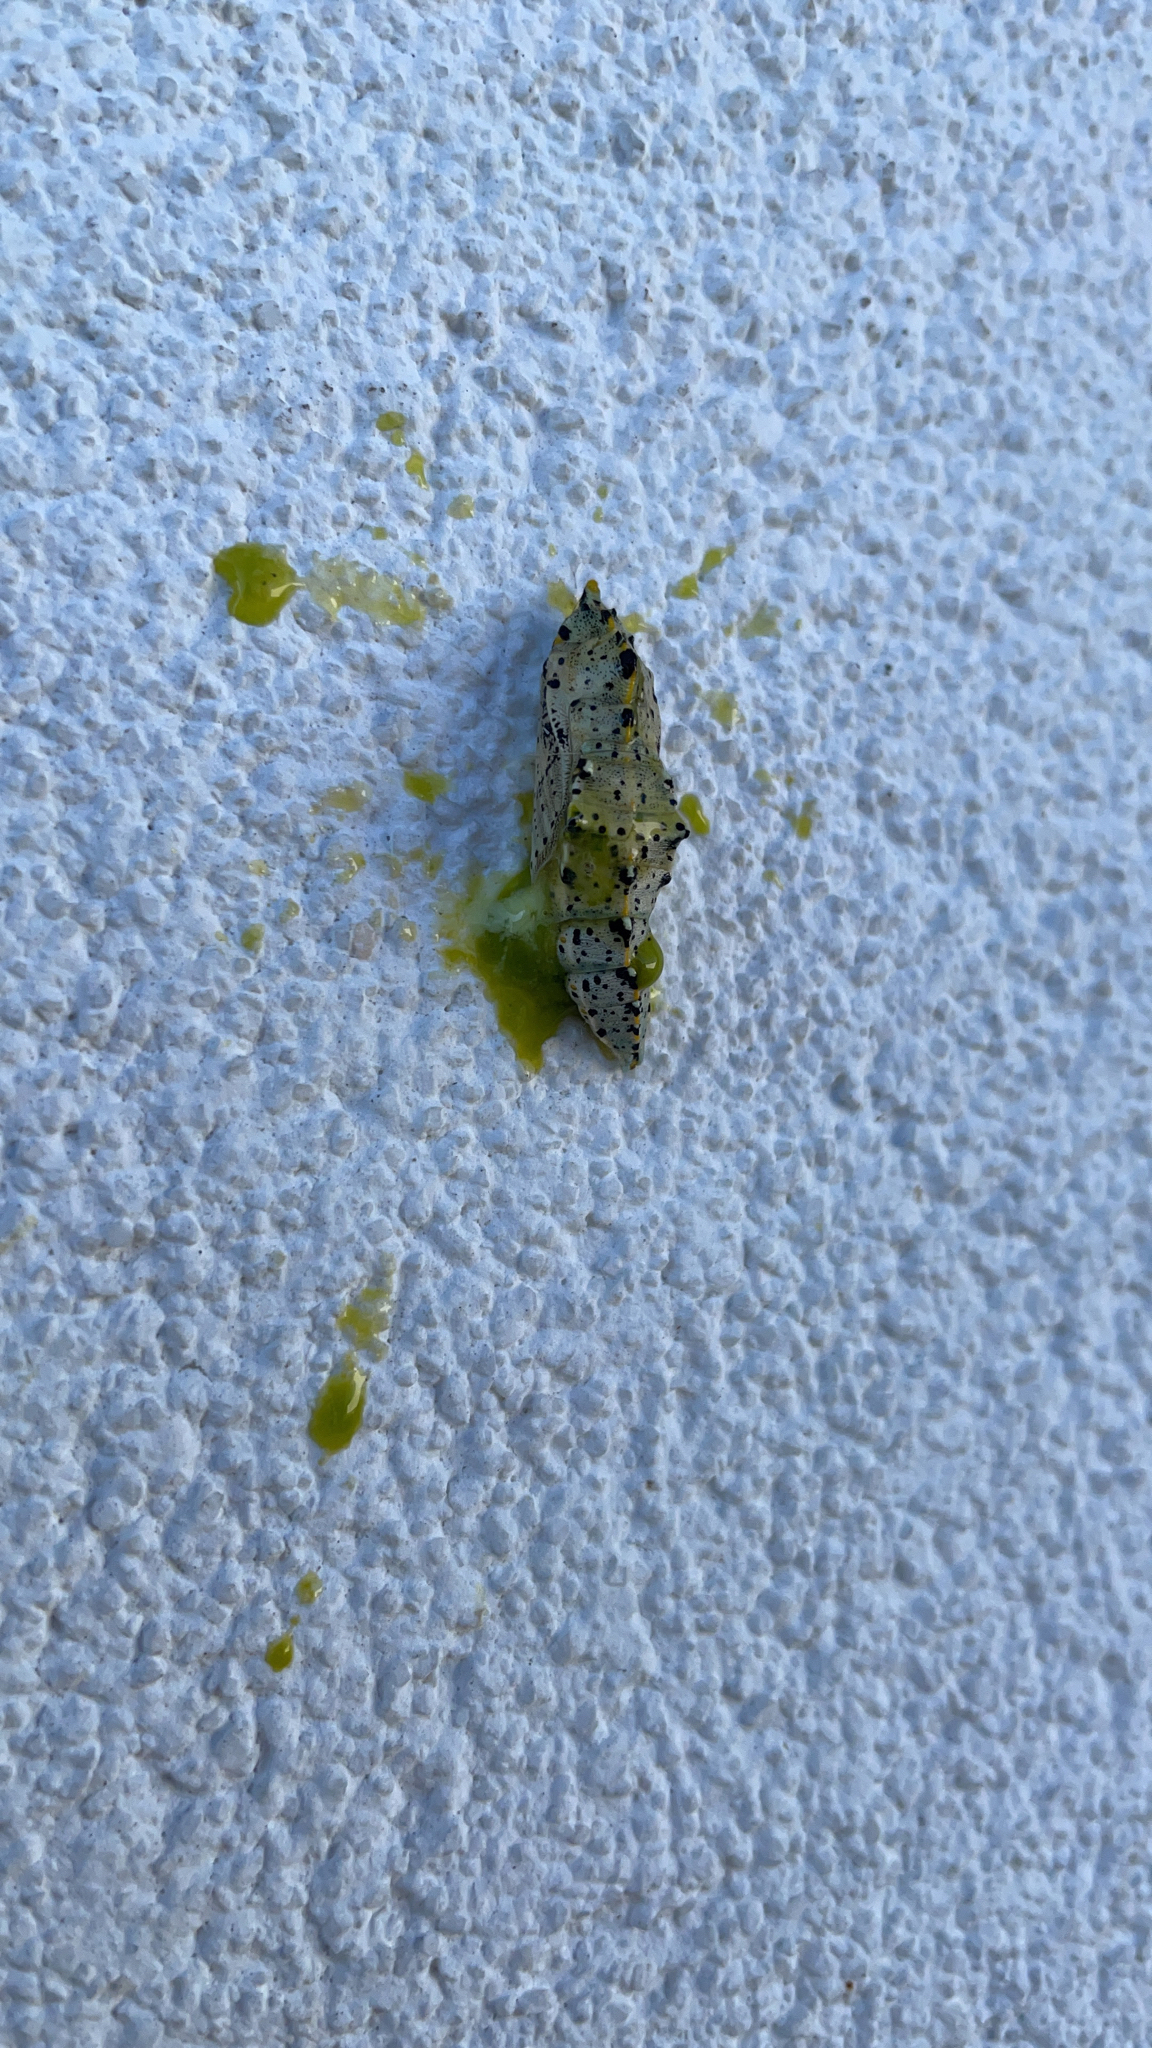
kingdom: Animalia
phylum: Arthropoda
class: Insecta
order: Lepidoptera
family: Pieridae
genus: Pieris
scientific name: Pieris brassicae
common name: Large white
